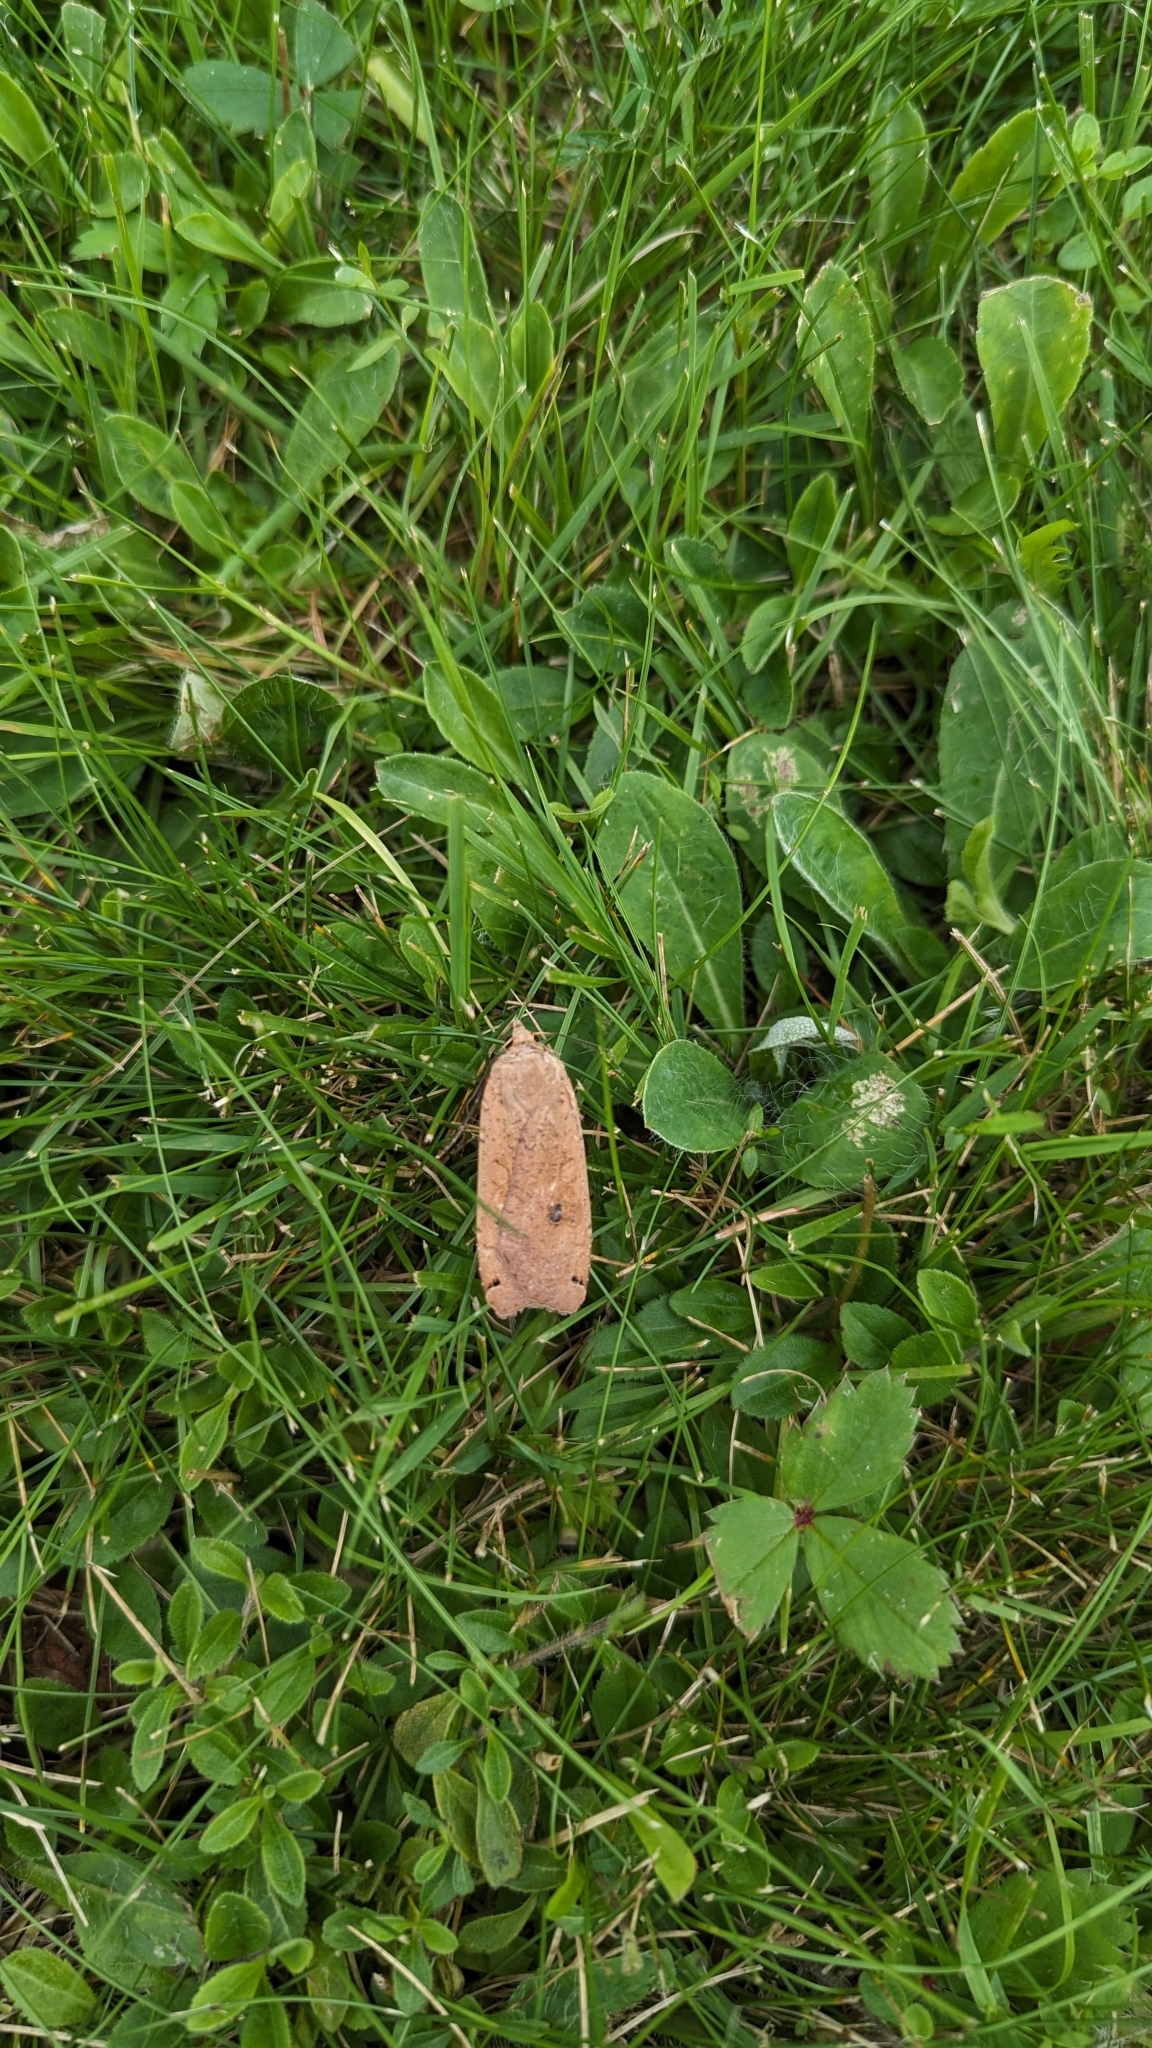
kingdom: Animalia
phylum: Arthropoda
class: Insecta
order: Lepidoptera
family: Noctuidae
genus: Noctua
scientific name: Noctua pronuba
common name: Large yellow underwing
